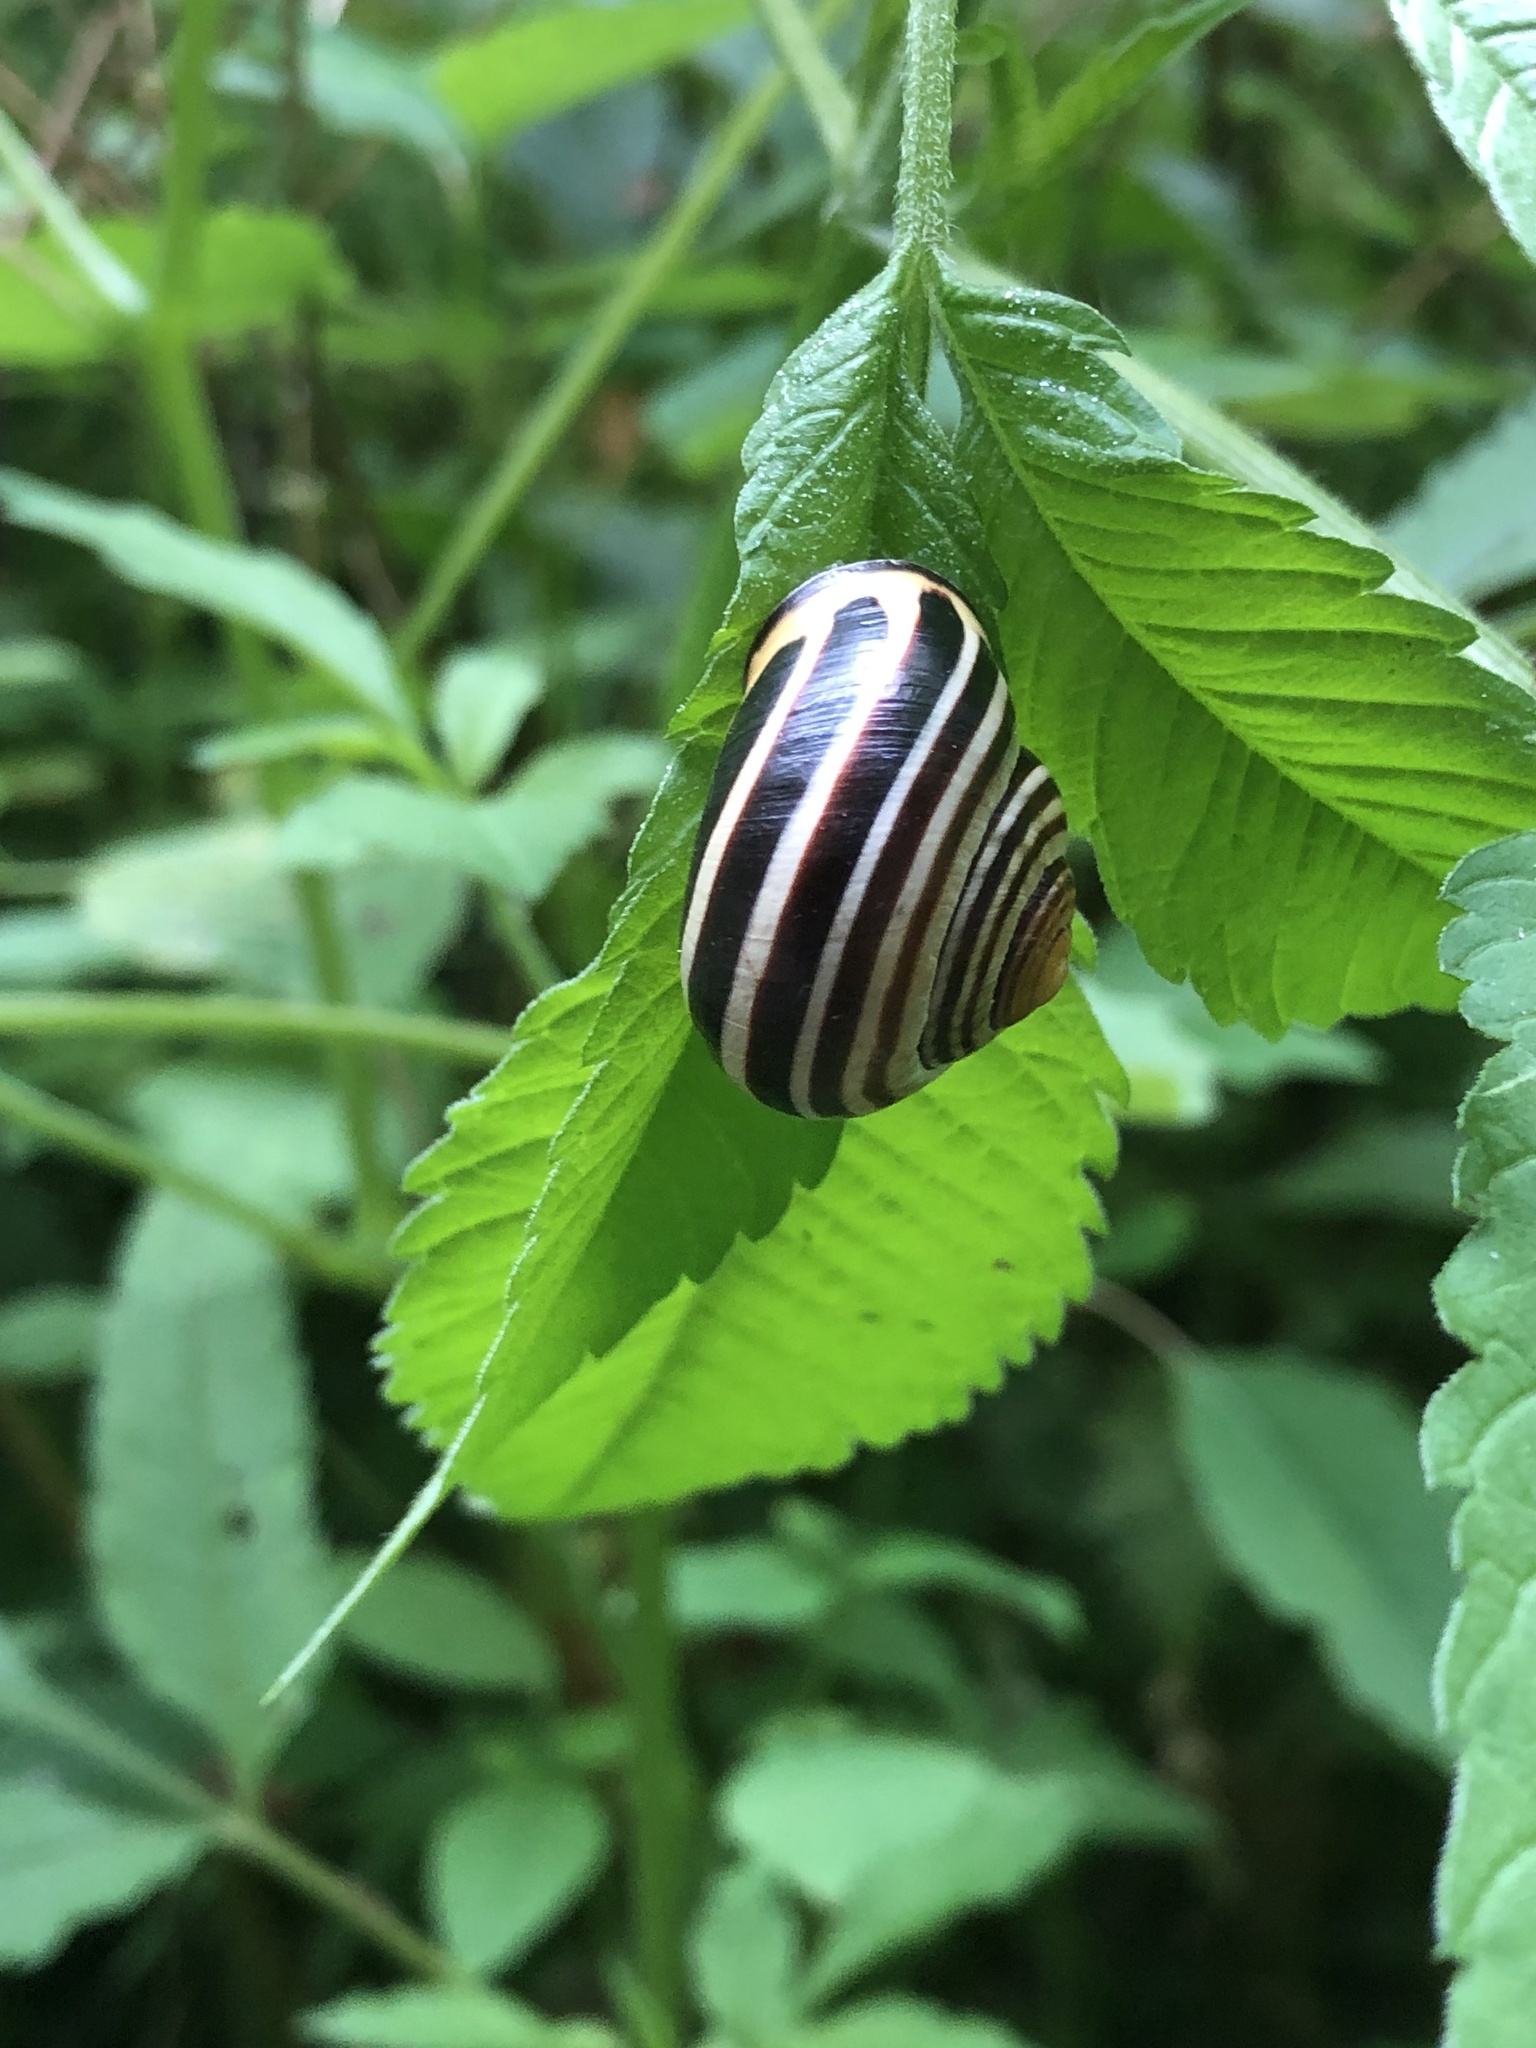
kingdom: Animalia
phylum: Mollusca
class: Gastropoda
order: Stylommatophora
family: Helicidae
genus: Cepaea
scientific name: Cepaea nemoralis
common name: Grovesnail
